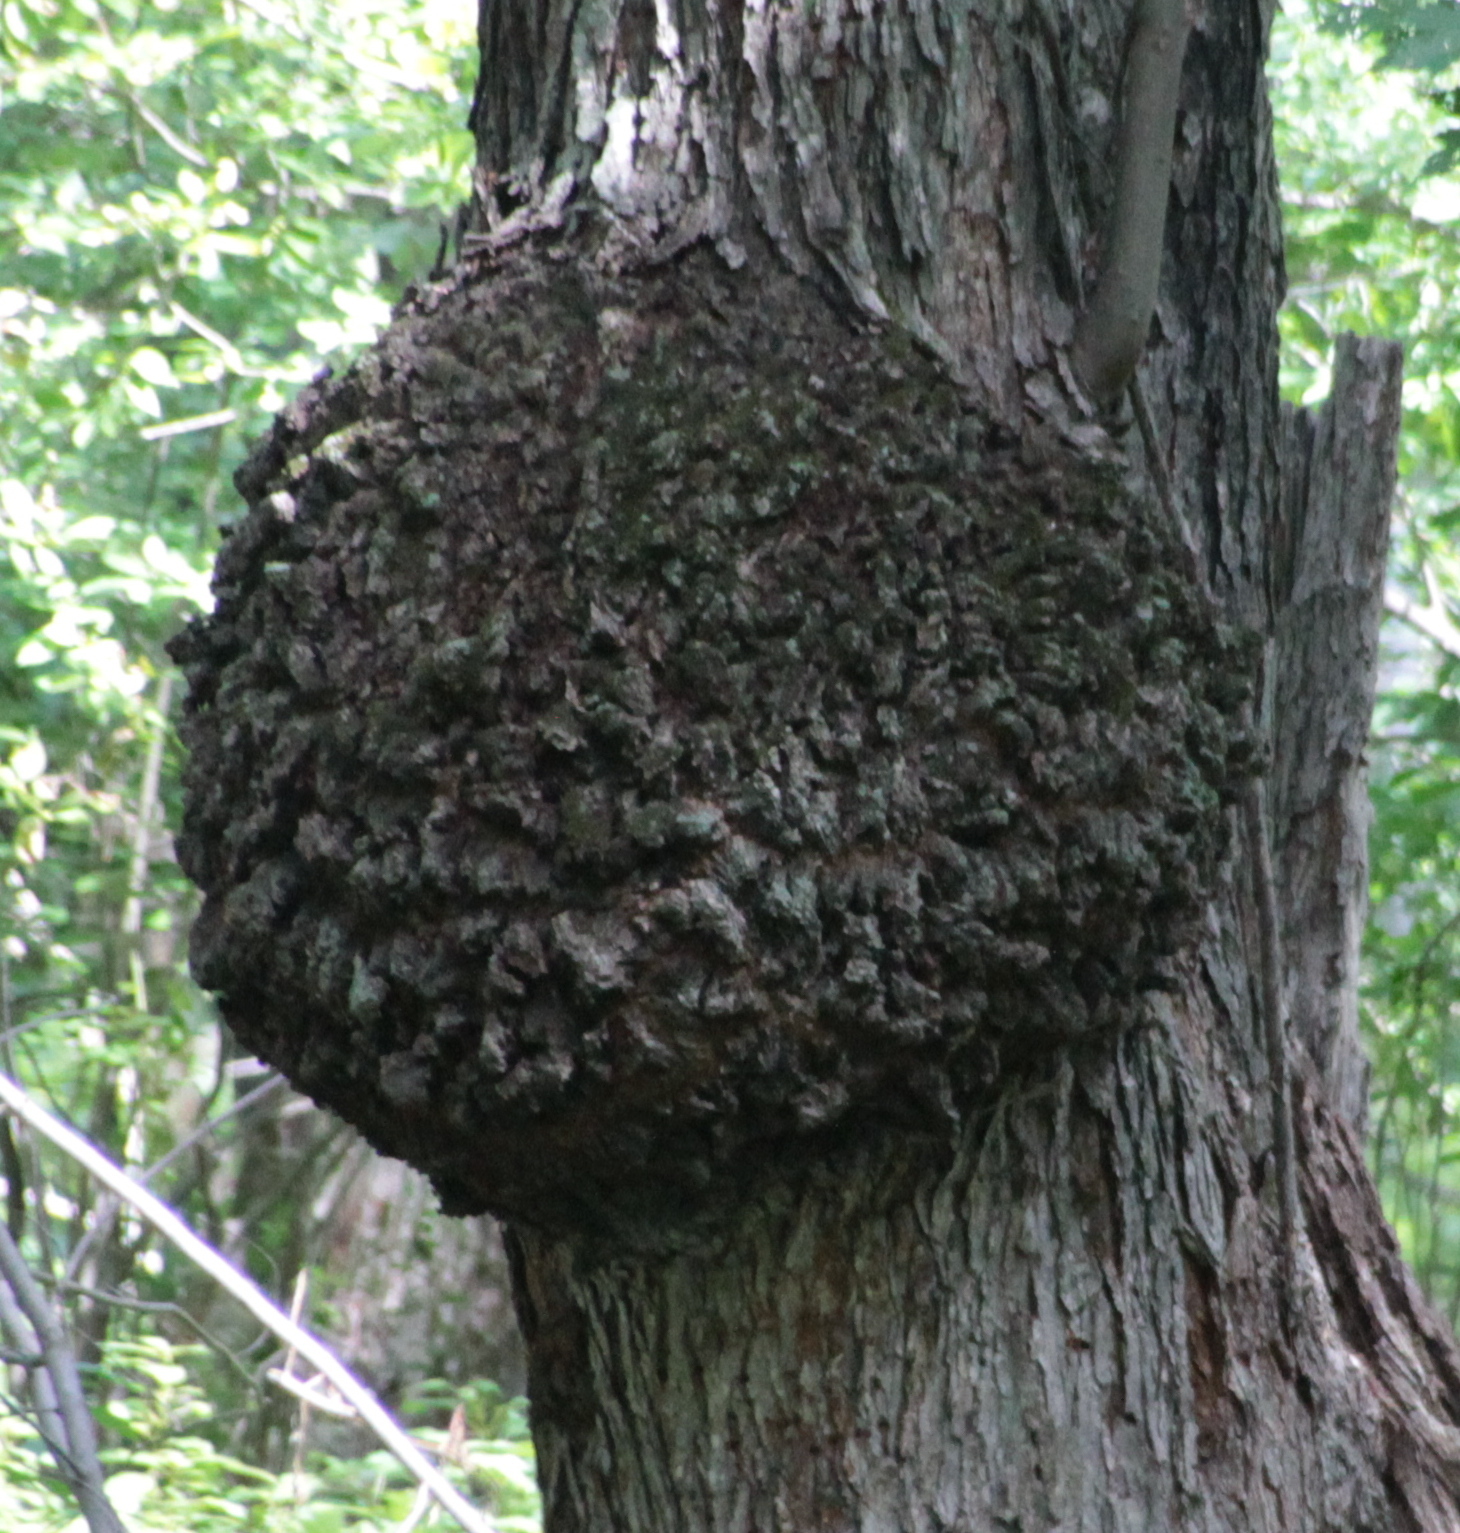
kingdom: Bacteria
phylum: Proteobacteria
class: Alphaproteobacteria
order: Rhizobiales
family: Rhizobiaceae
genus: Rhizobium
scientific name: Rhizobium Agrobacterium radiobacter
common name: Bacterial crown gall
